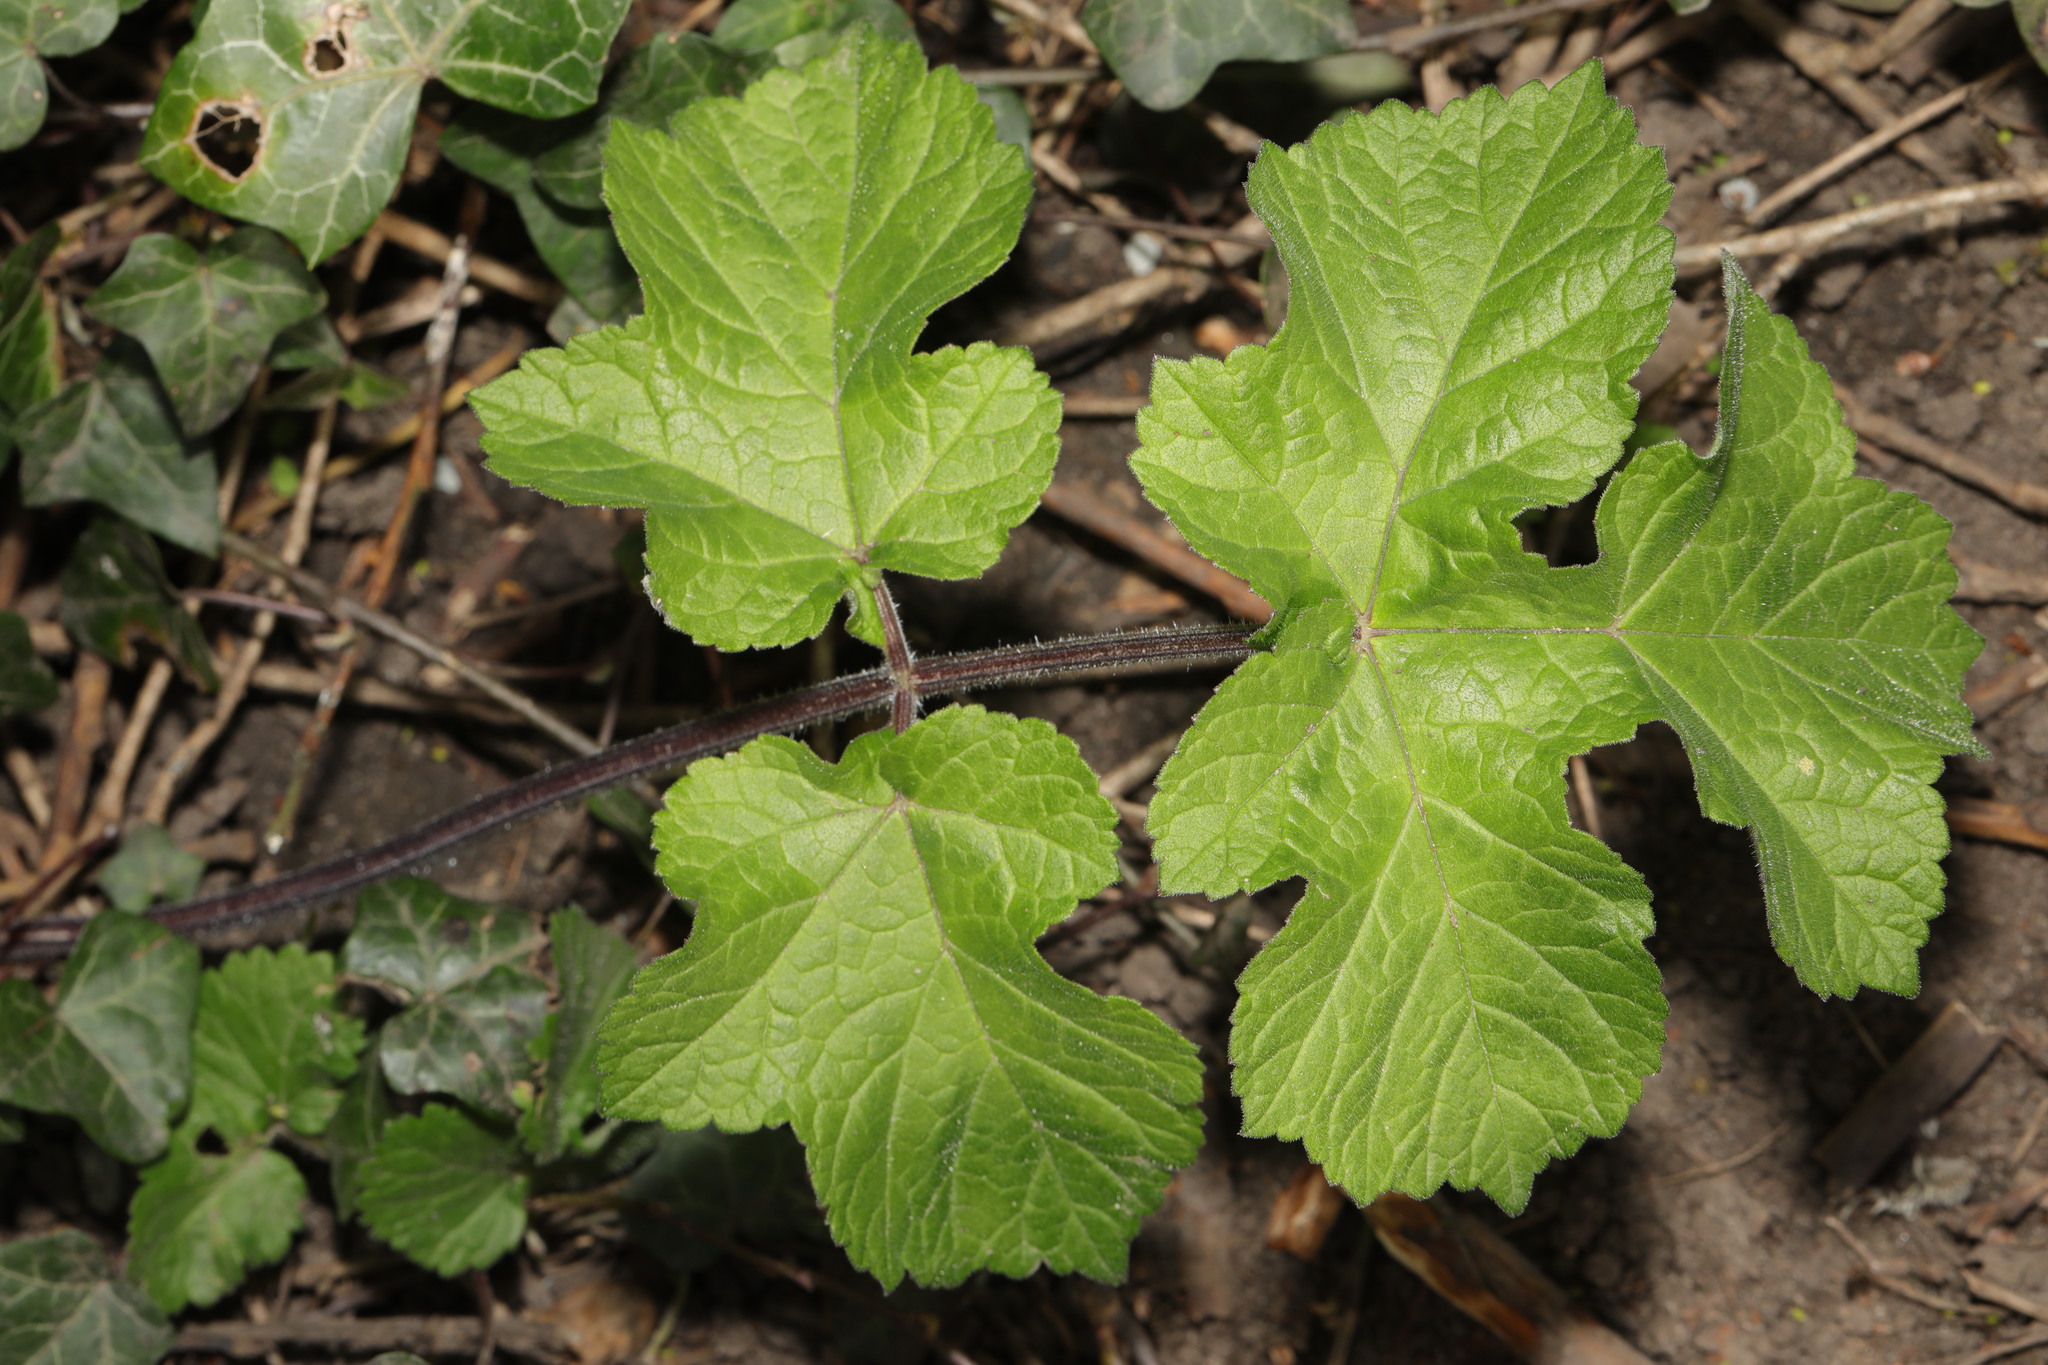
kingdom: Plantae
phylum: Tracheophyta
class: Magnoliopsida
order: Apiales
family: Apiaceae
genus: Heracleum
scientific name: Heracleum sphondylium
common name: Hogweed
